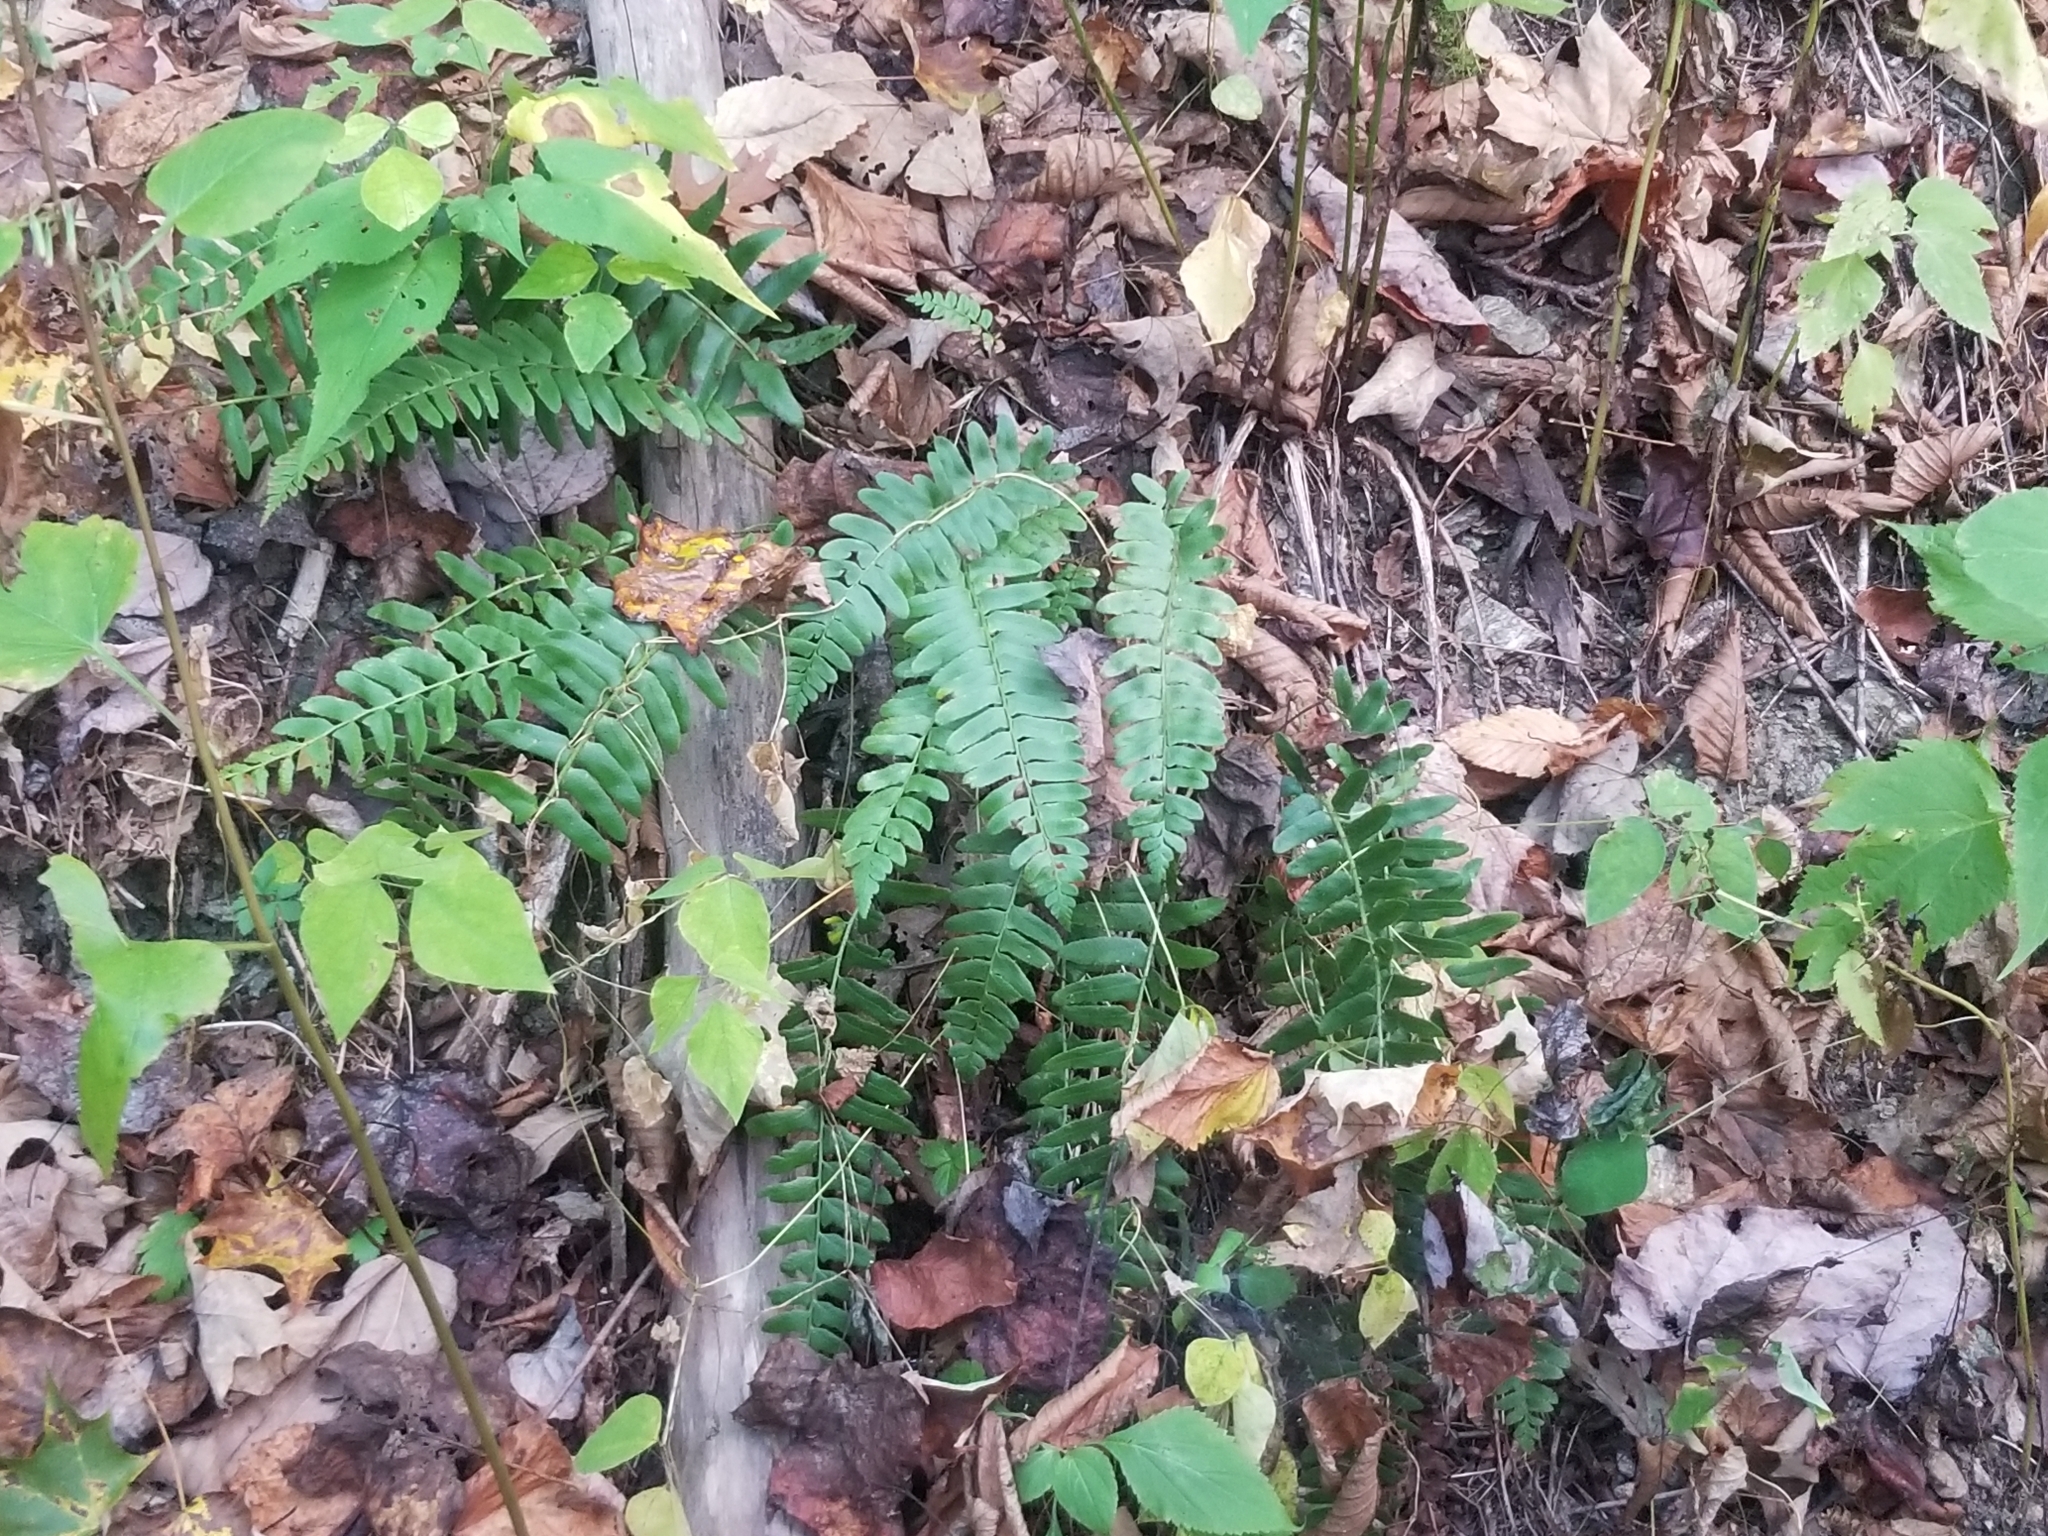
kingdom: Plantae
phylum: Tracheophyta
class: Polypodiopsida
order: Polypodiales
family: Dryopteridaceae
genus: Polystichum
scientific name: Polystichum acrostichoides
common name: Christmas fern
